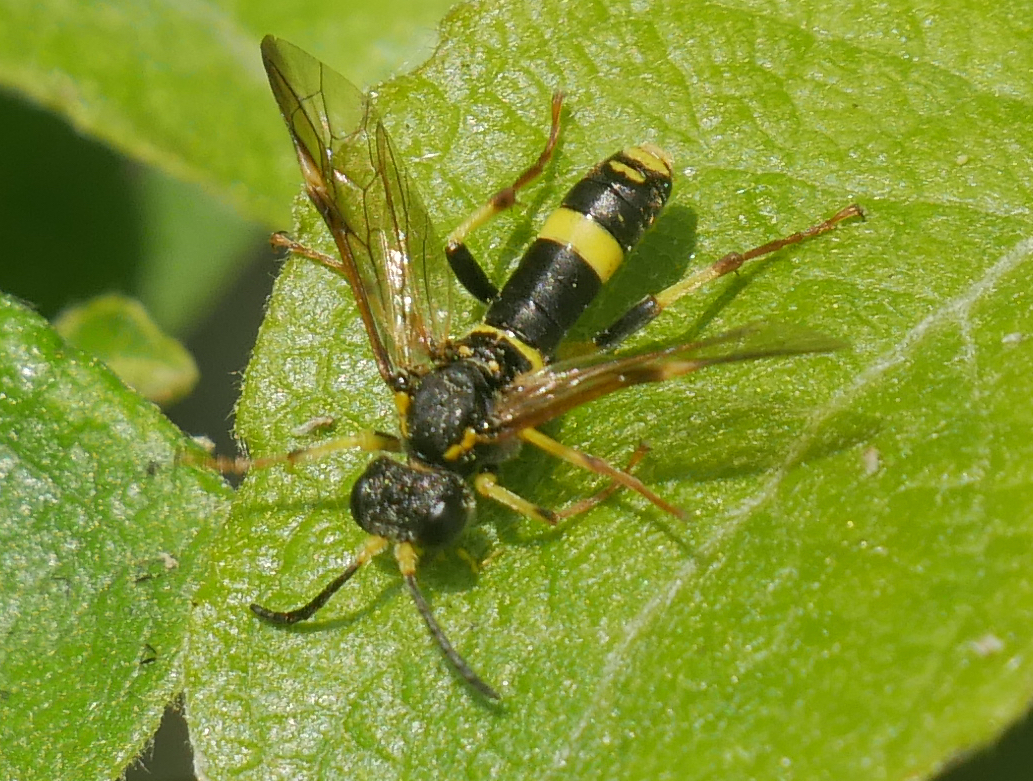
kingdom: Animalia
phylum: Arthropoda
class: Insecta
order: Hymenoptera
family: Tenthredinidae
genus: Tenthredo
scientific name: Tenthredo zona
